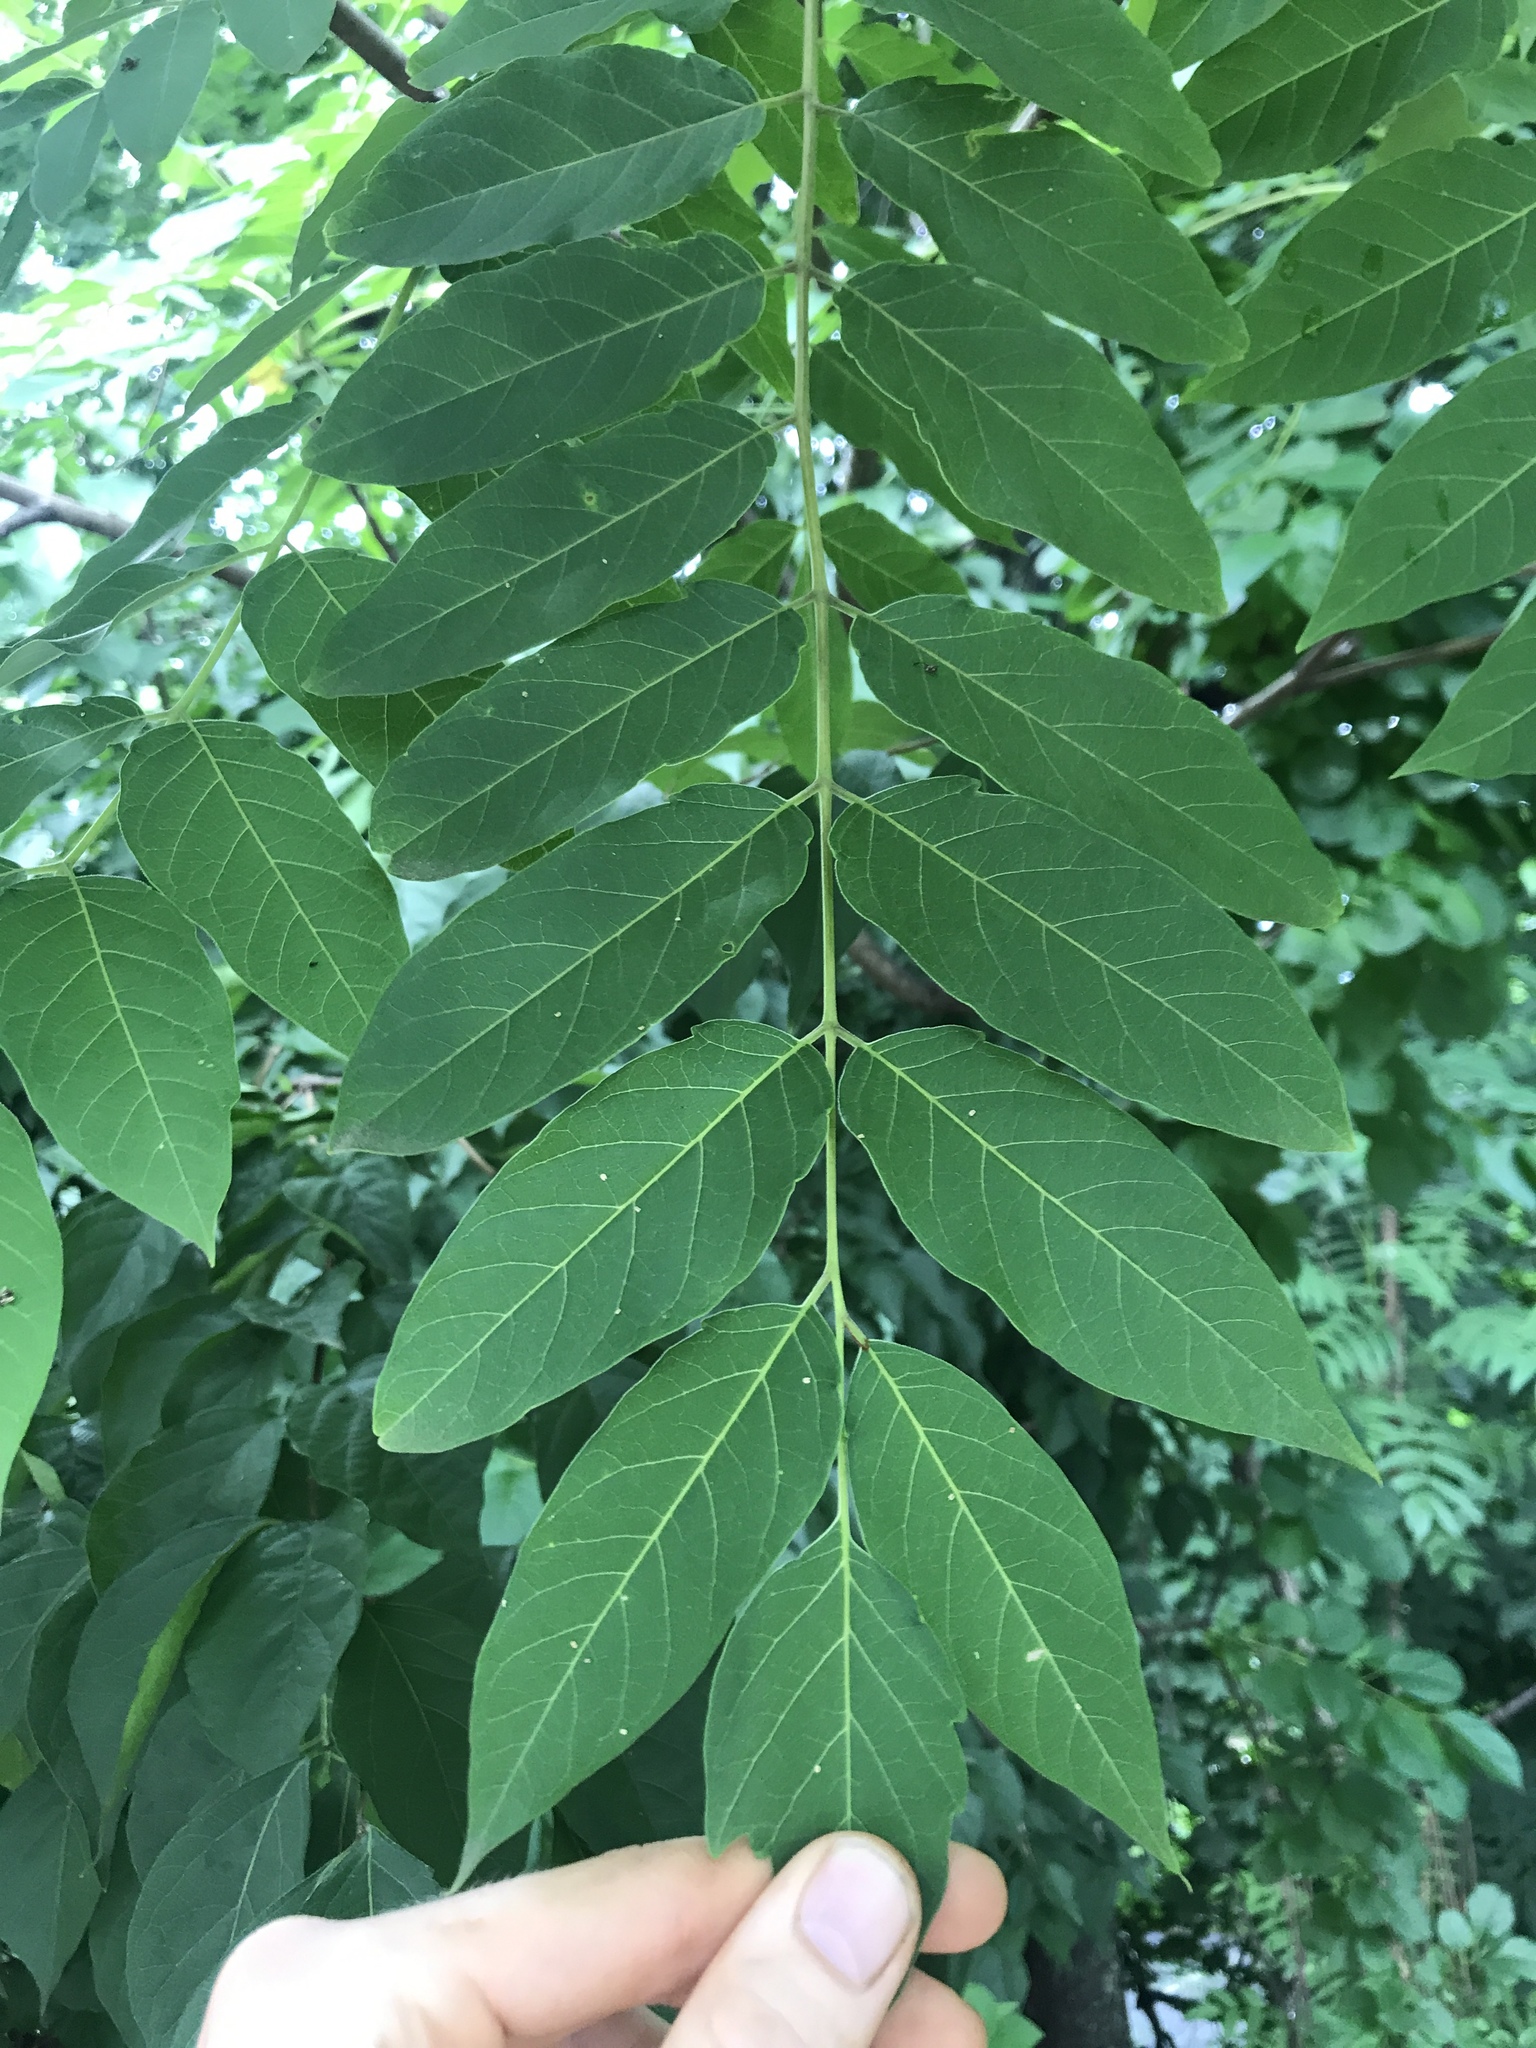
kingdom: Plantae
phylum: Tracheophyta
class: Magnoliopsida
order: Sapindales
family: Simaroubaceae
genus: Ailanthus
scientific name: Ailanthus altissima
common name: Tree-of-heaven
